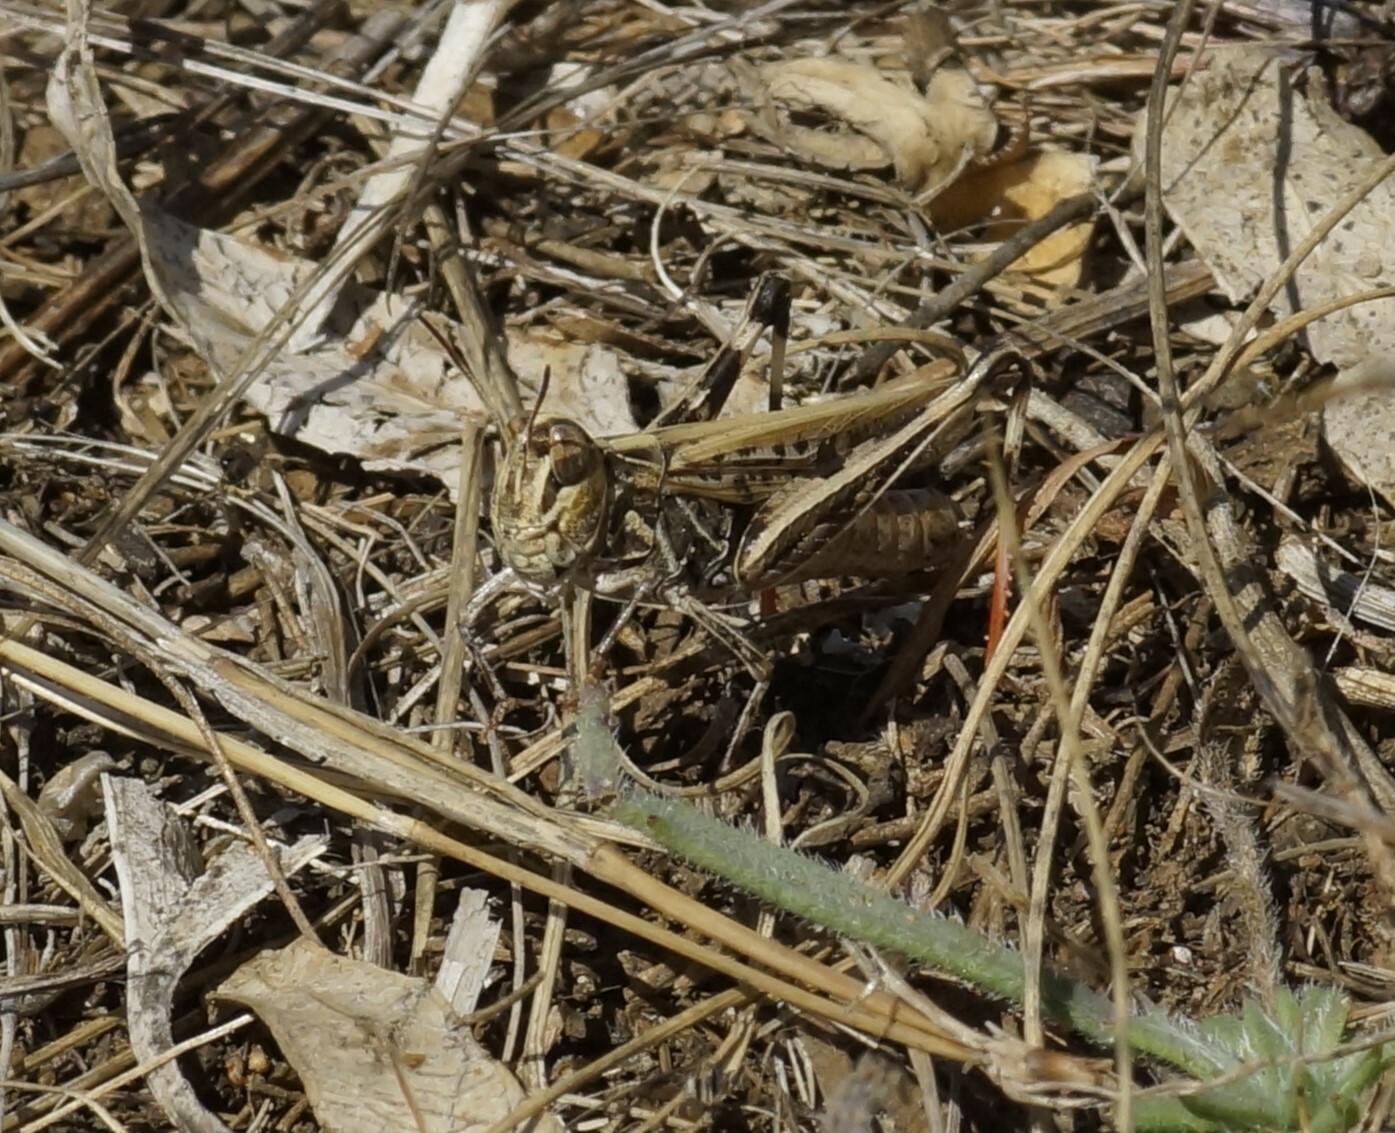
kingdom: Animalia
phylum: Arthropoda
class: Insecta
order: Orthoptera
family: Acrididae
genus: Austroicetes
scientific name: Austroicetes vulgaris
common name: Southeastern austroicetes
